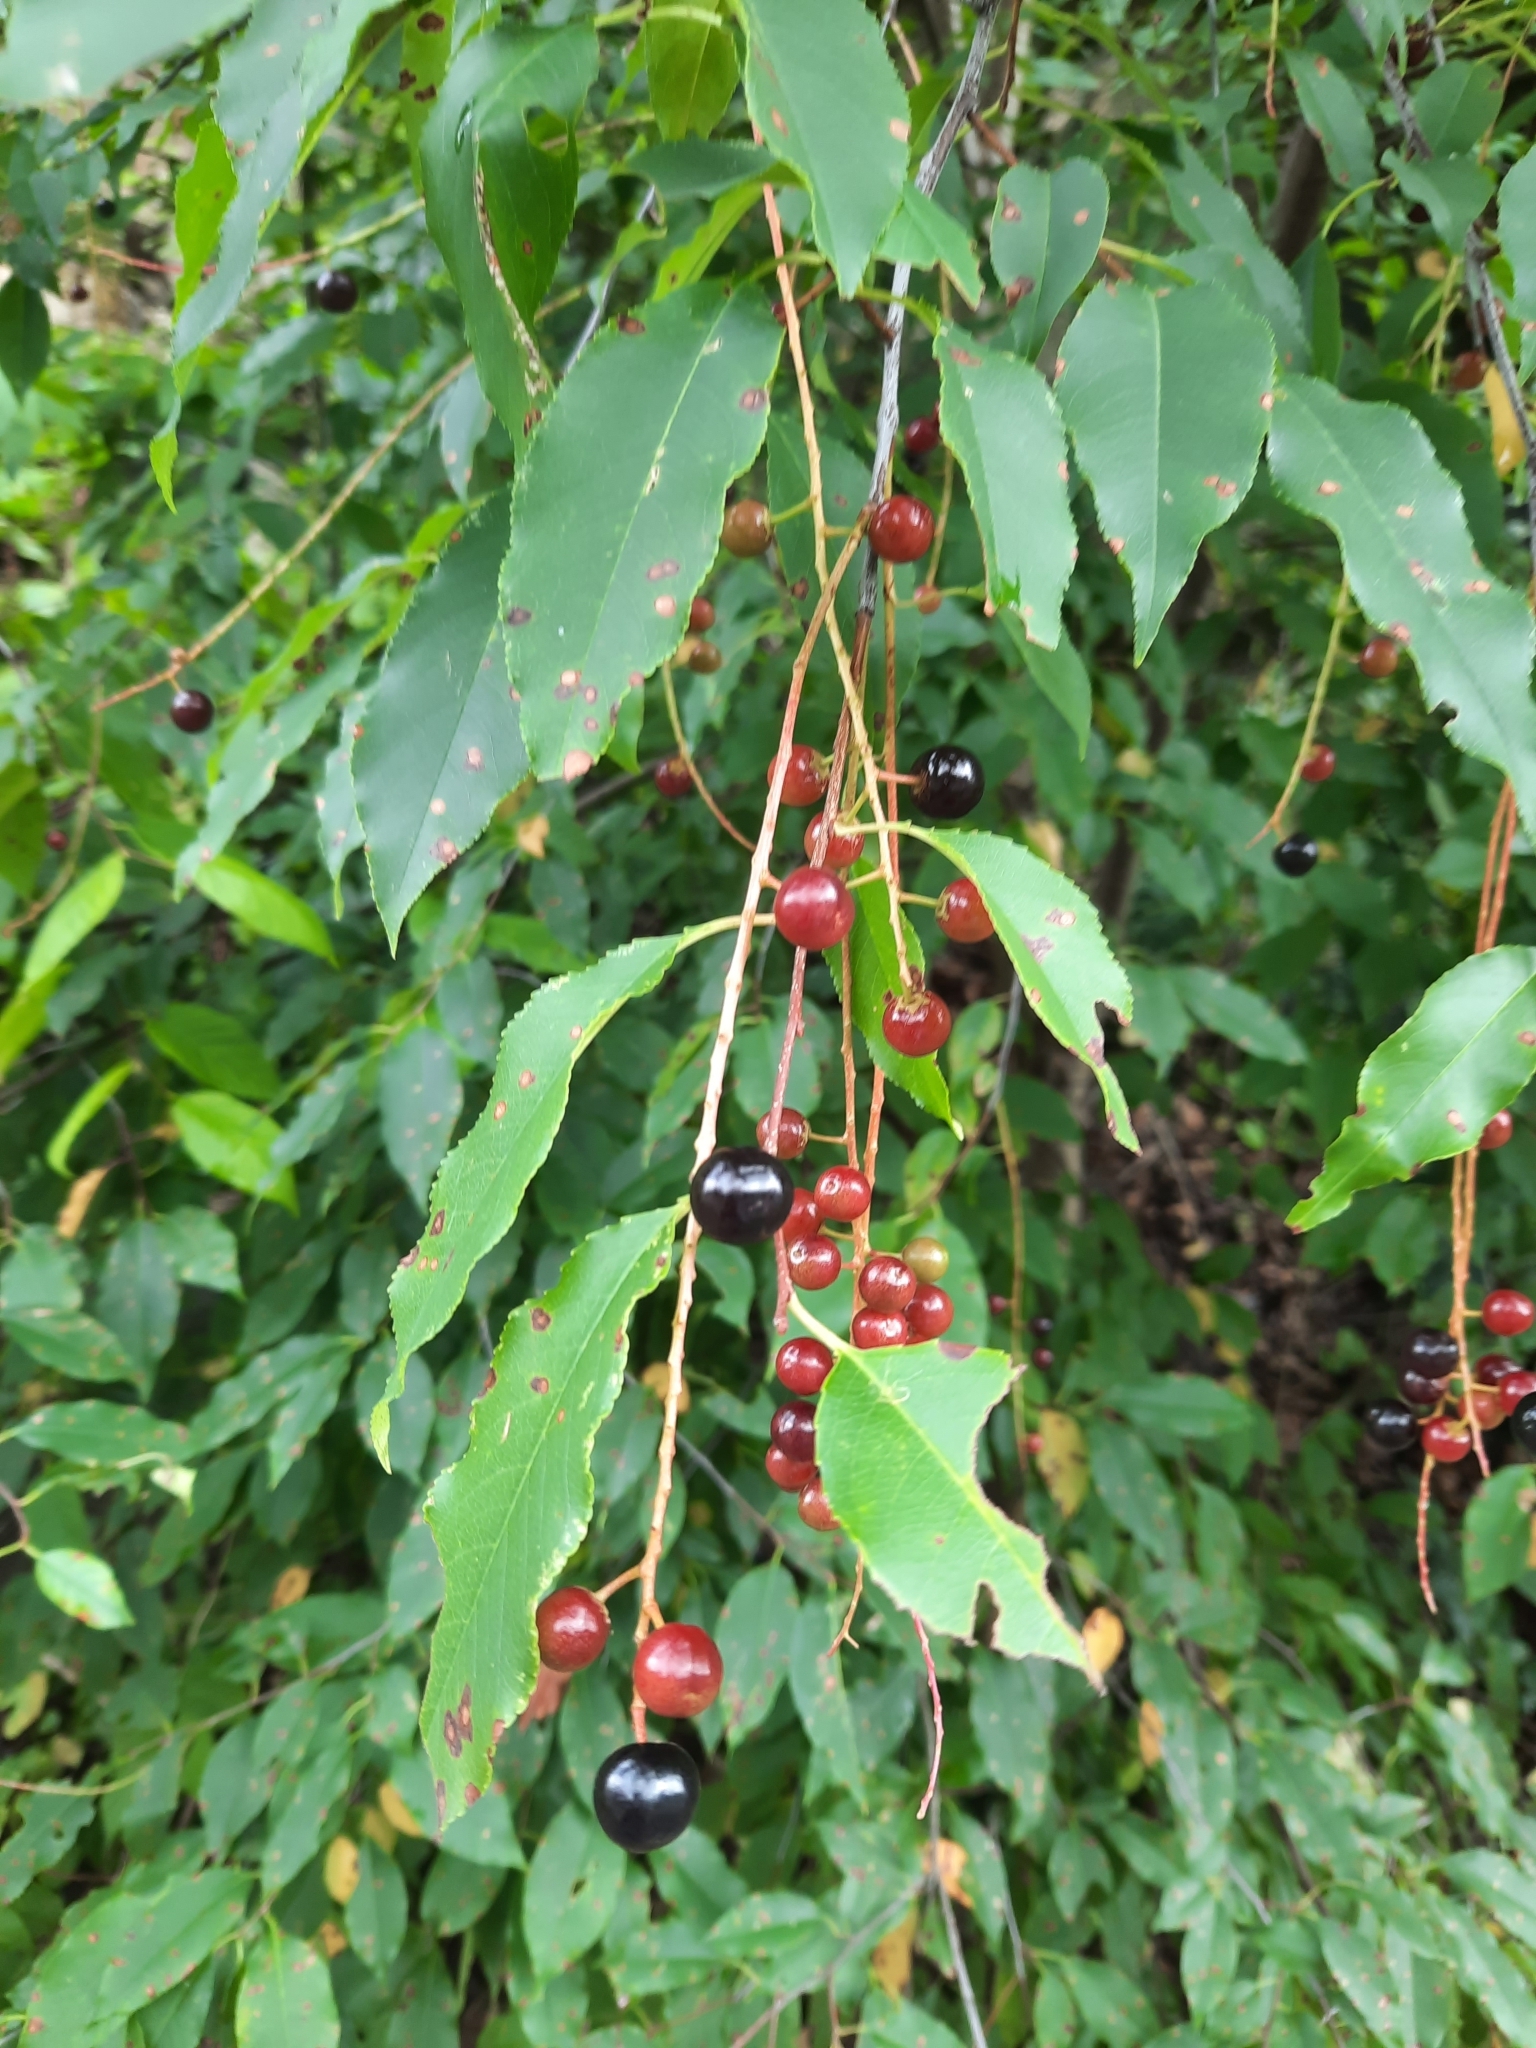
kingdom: Plantae
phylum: Tracheophyta
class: Magnoliopsida
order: Rosales
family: Rosaceae
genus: Prunus
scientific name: Prunus serotina
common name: Black cherry
